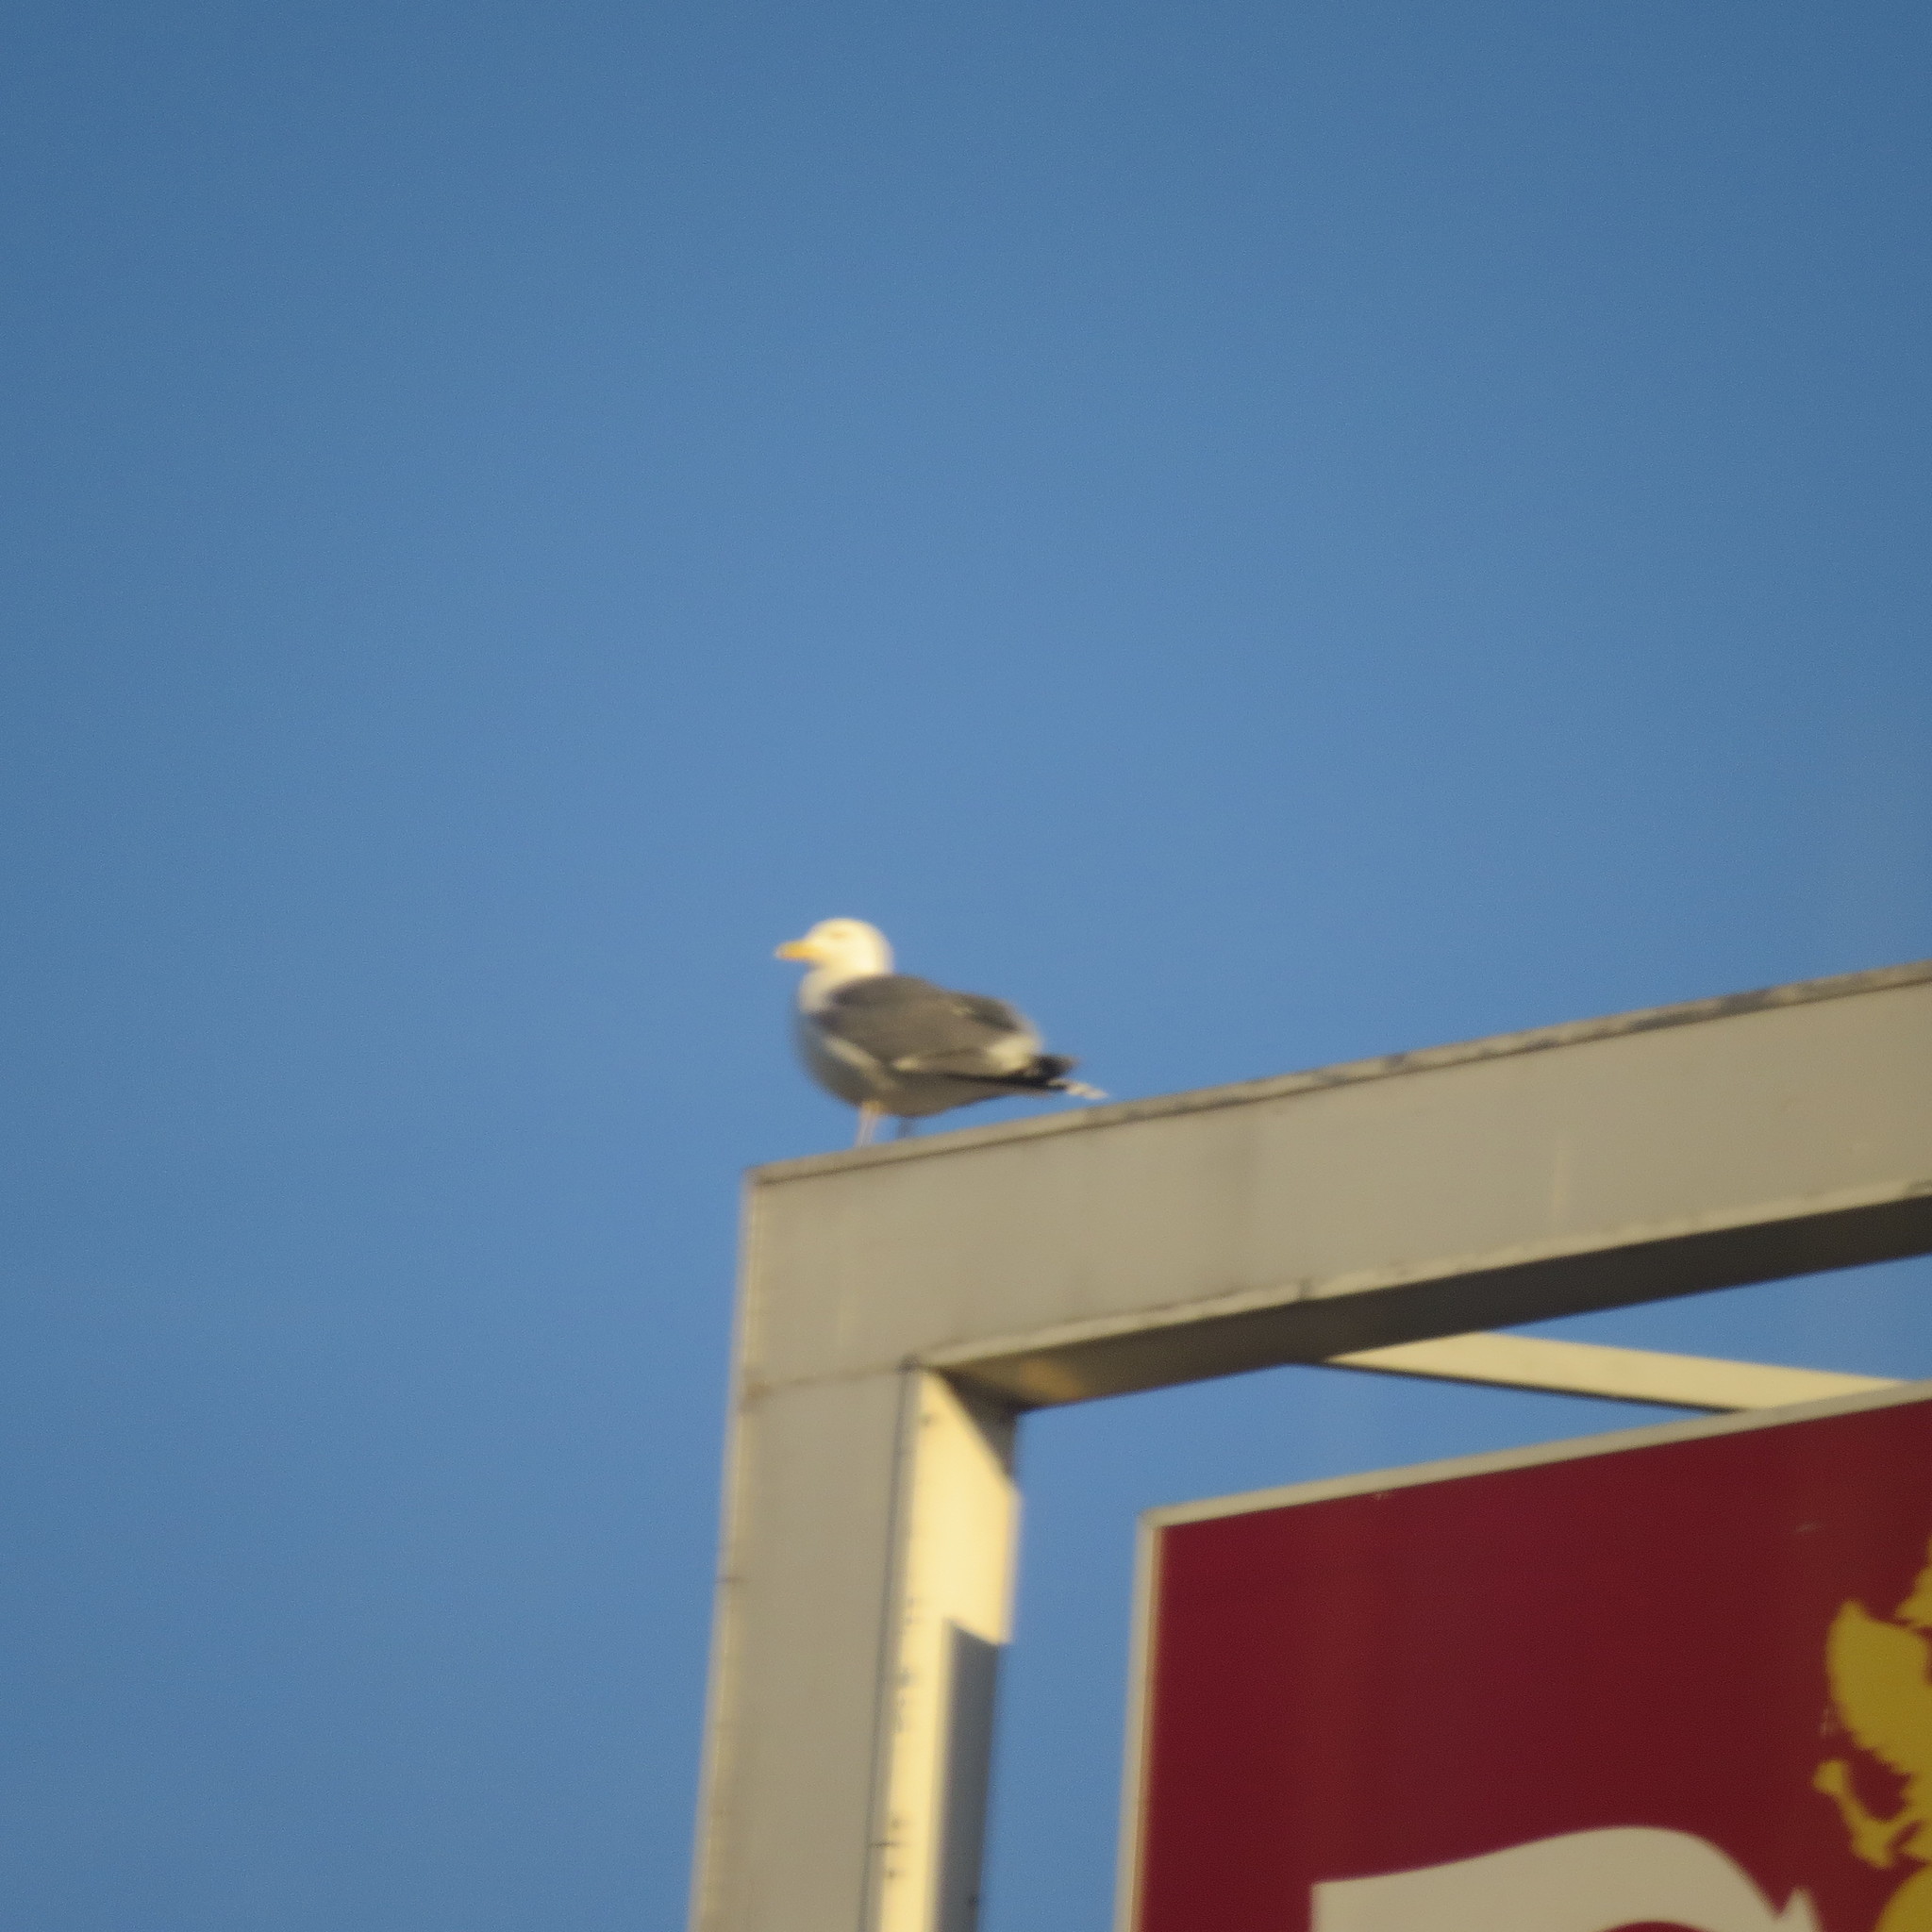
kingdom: Animalia
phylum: Chordata
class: Aves
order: Charadriiformes
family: Laridae
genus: Larus
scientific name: Larus argentatus
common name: Herring gull
